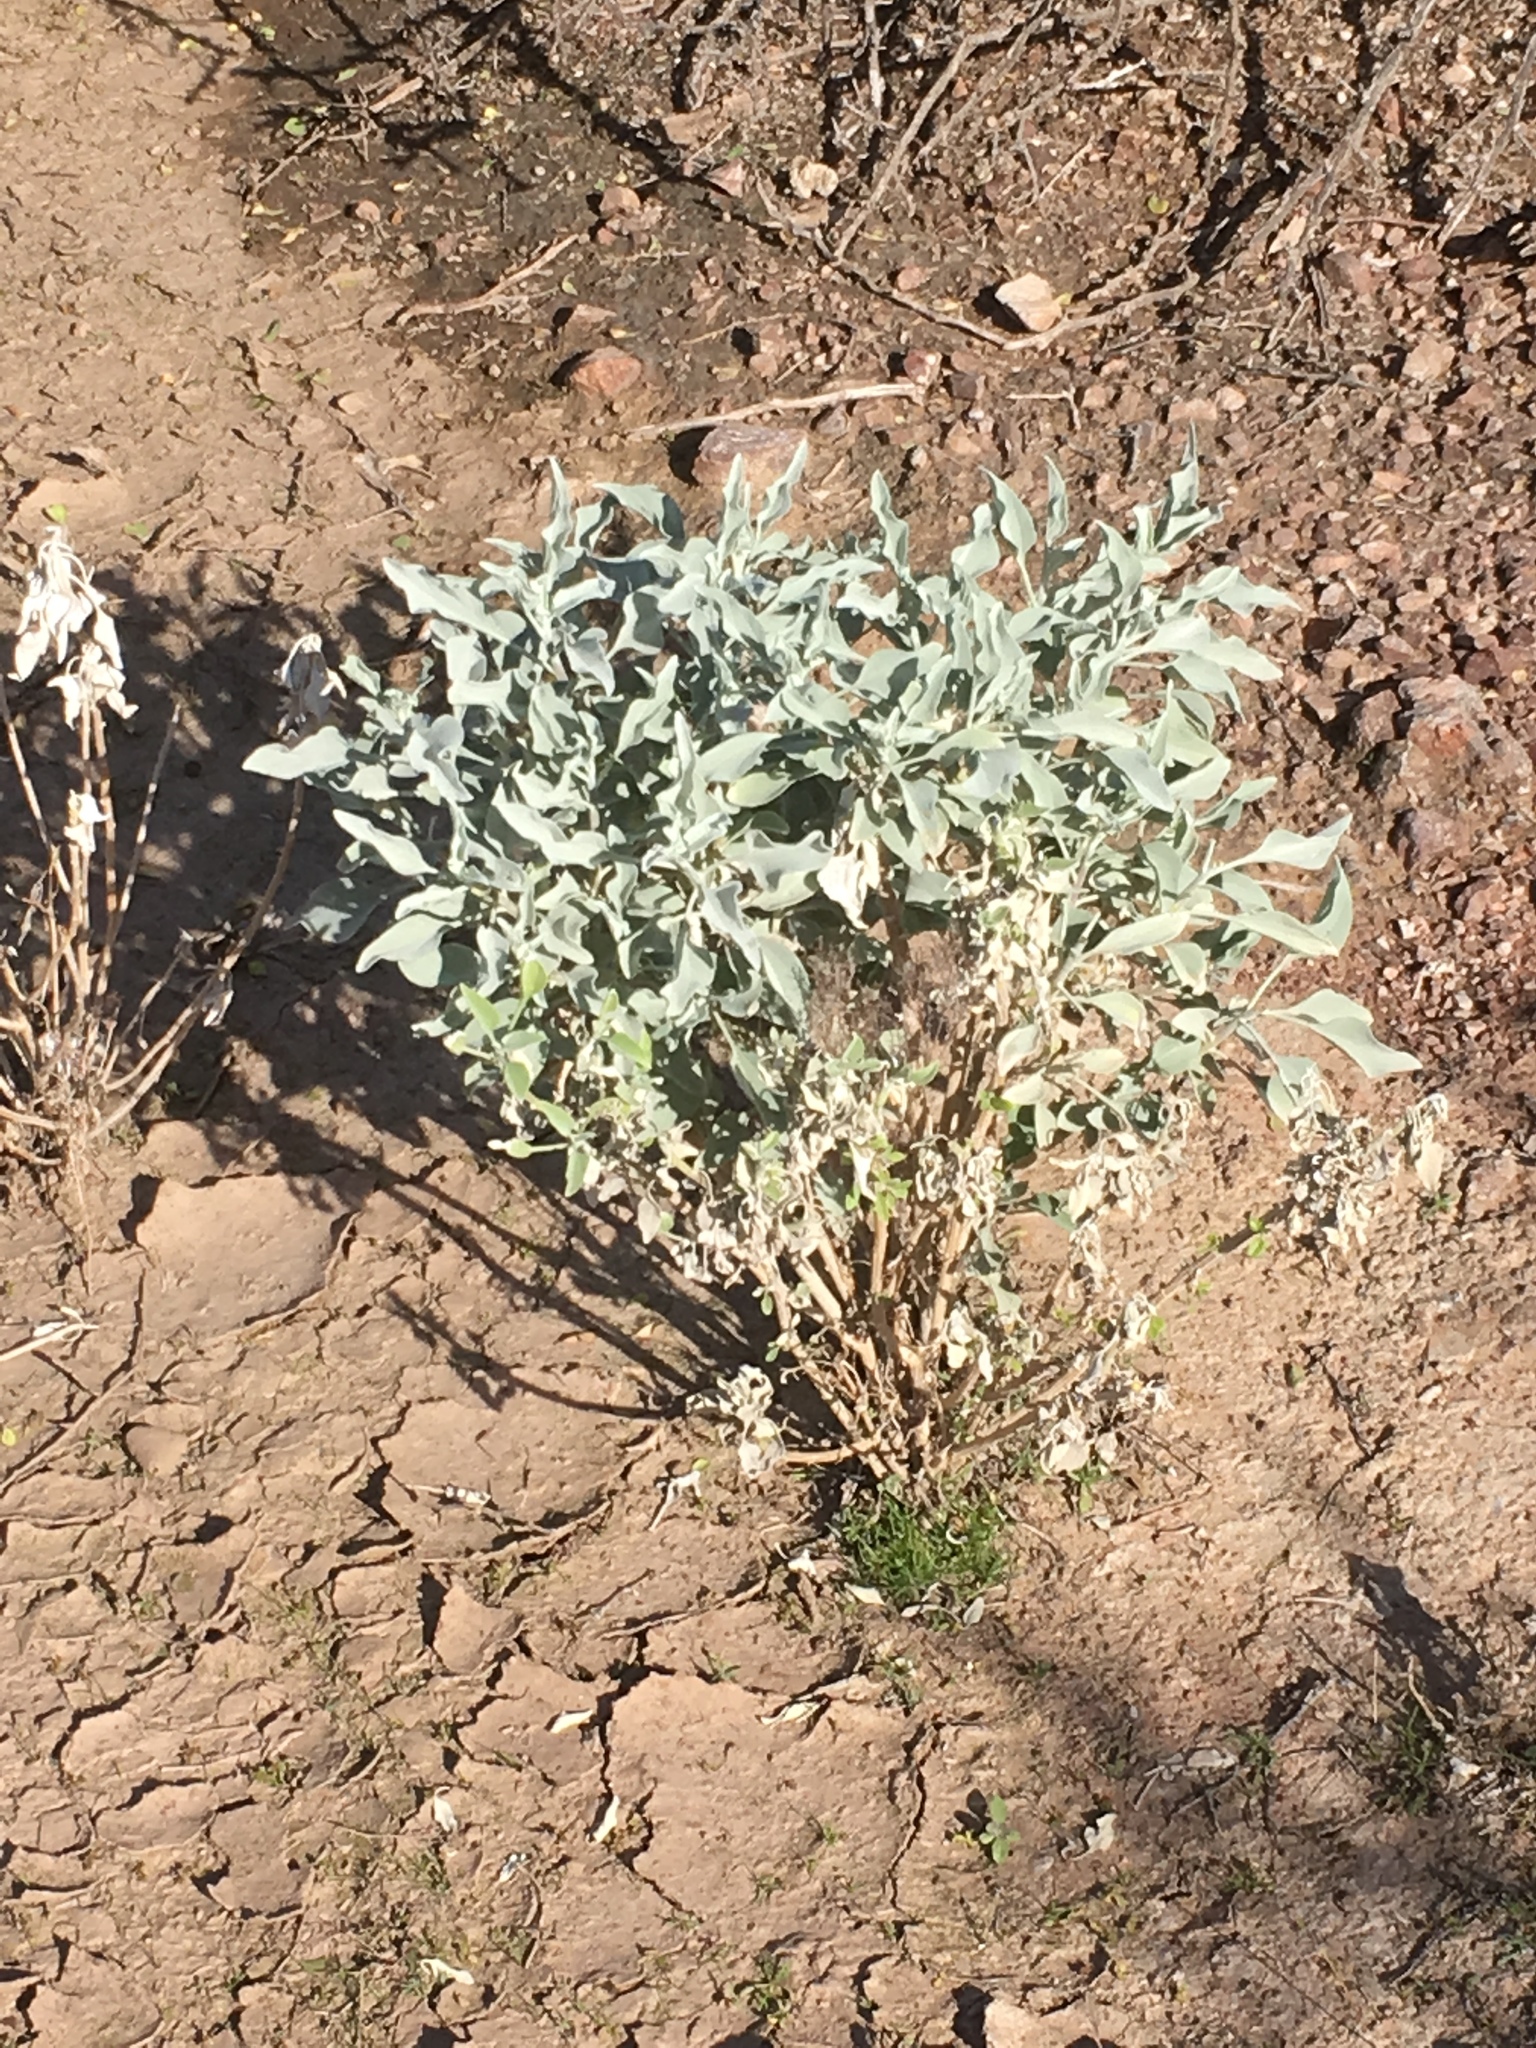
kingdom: Plantae
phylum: Tracheophyta
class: Magnoliopsida
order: Asterales
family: Asteraceae
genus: Encelia
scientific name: Encelia farinosa
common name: Brittlebush
